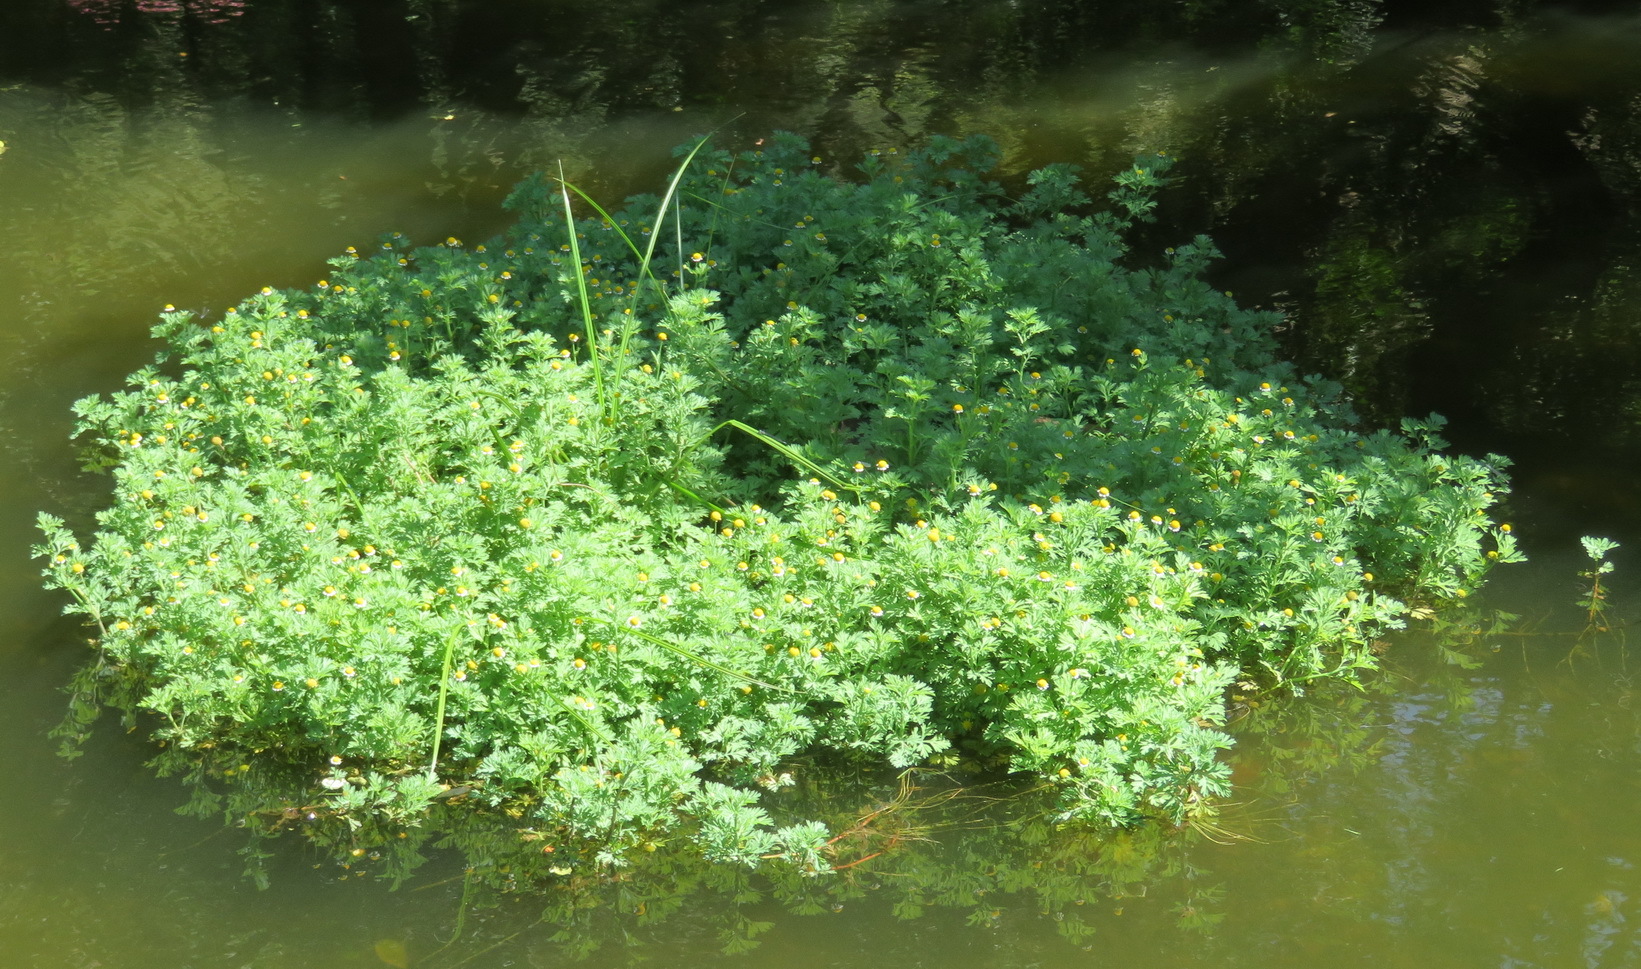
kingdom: Plantae
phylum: Tracheophyta
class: Magnoliopsida
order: Asterales
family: Asteraceae
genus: Cotula
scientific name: Cotula nigellifolia
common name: Staggerweed
